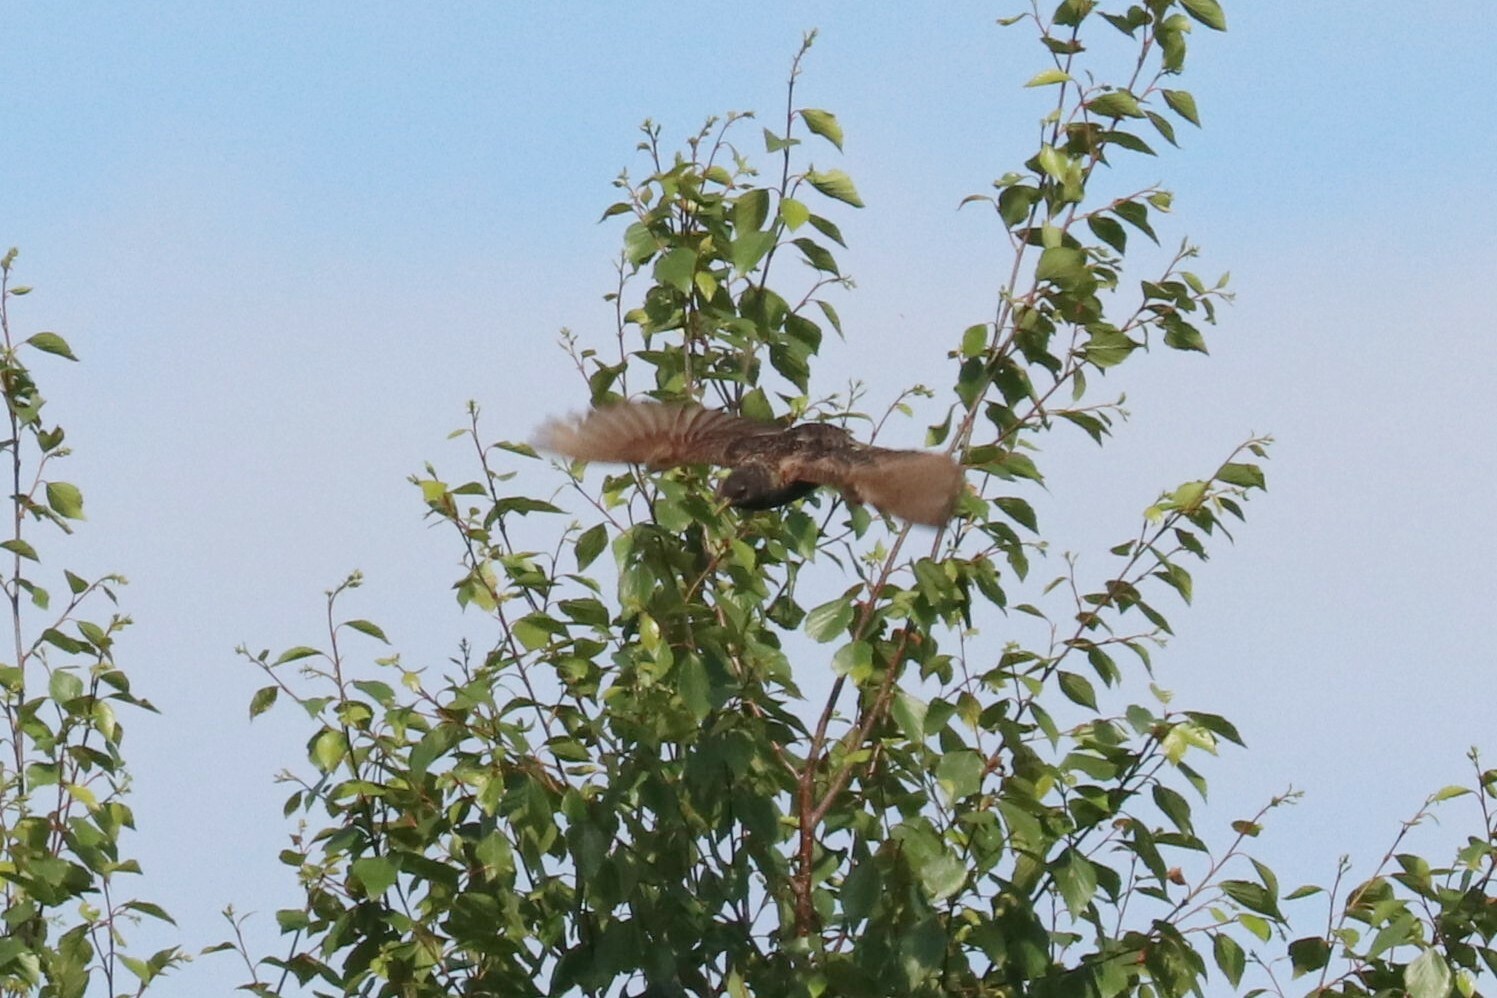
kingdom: Animalia
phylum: Chordata
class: Aves
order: Passeriformes
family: Sturnidae
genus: Sturnus
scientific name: Sturnus vulgaris
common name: Common starling
